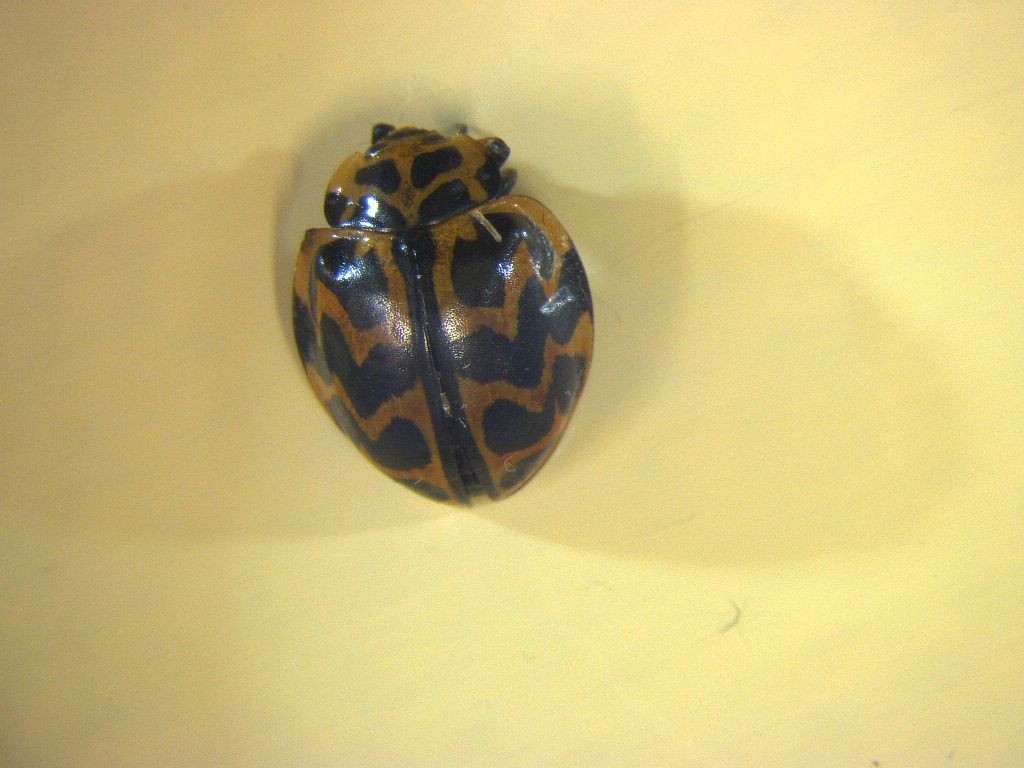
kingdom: Animalia
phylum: Arthropoda
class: Insecta
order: Coleoptera
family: Coccinellidae
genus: Cleobora
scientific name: Cleobora
